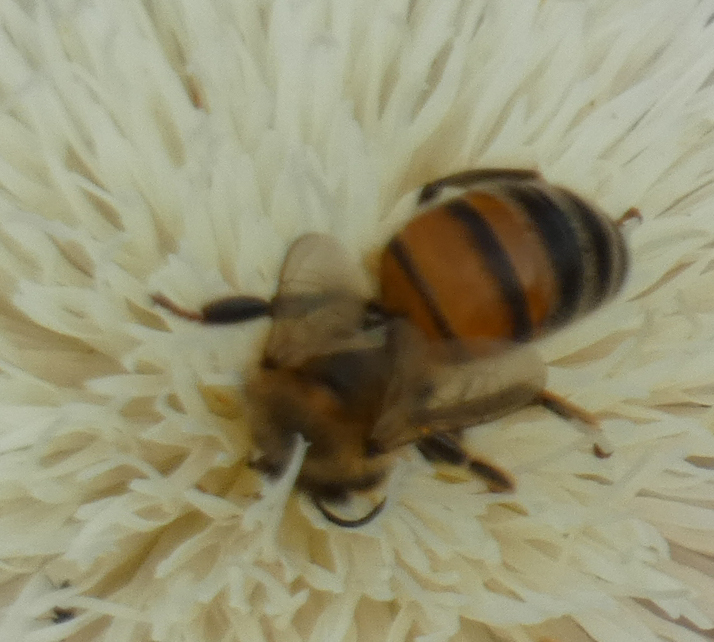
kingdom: Animalia
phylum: Arthropoda
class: Insecta
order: Hymenoptera
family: Apidae
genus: Apis
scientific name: Apis mellifera
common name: Honey bee
